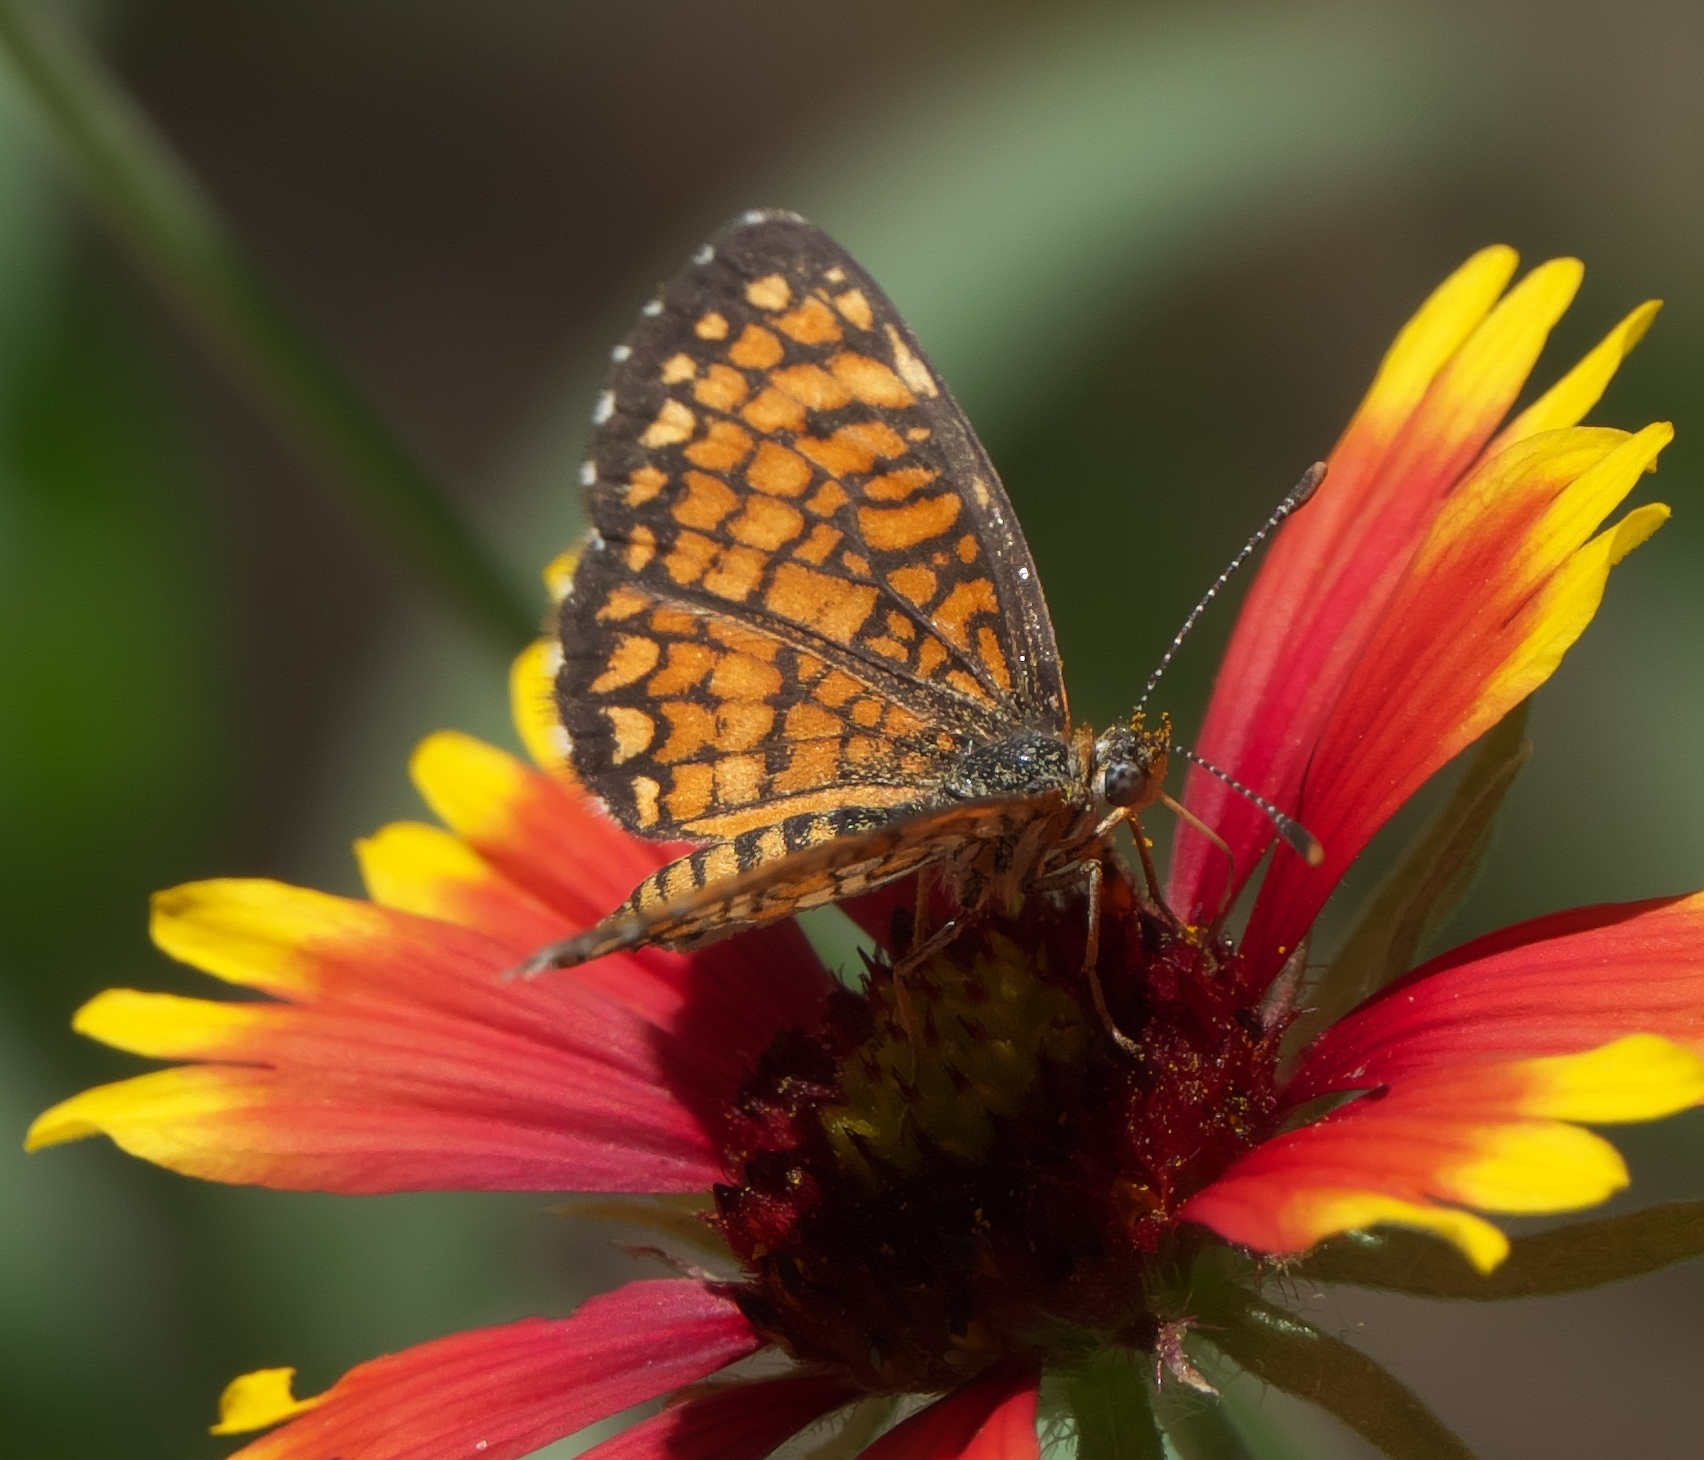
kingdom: Animalia
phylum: Arthropoda
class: Insecta
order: Lepidoptera
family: Nymphalidae
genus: Texola
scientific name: Texola
